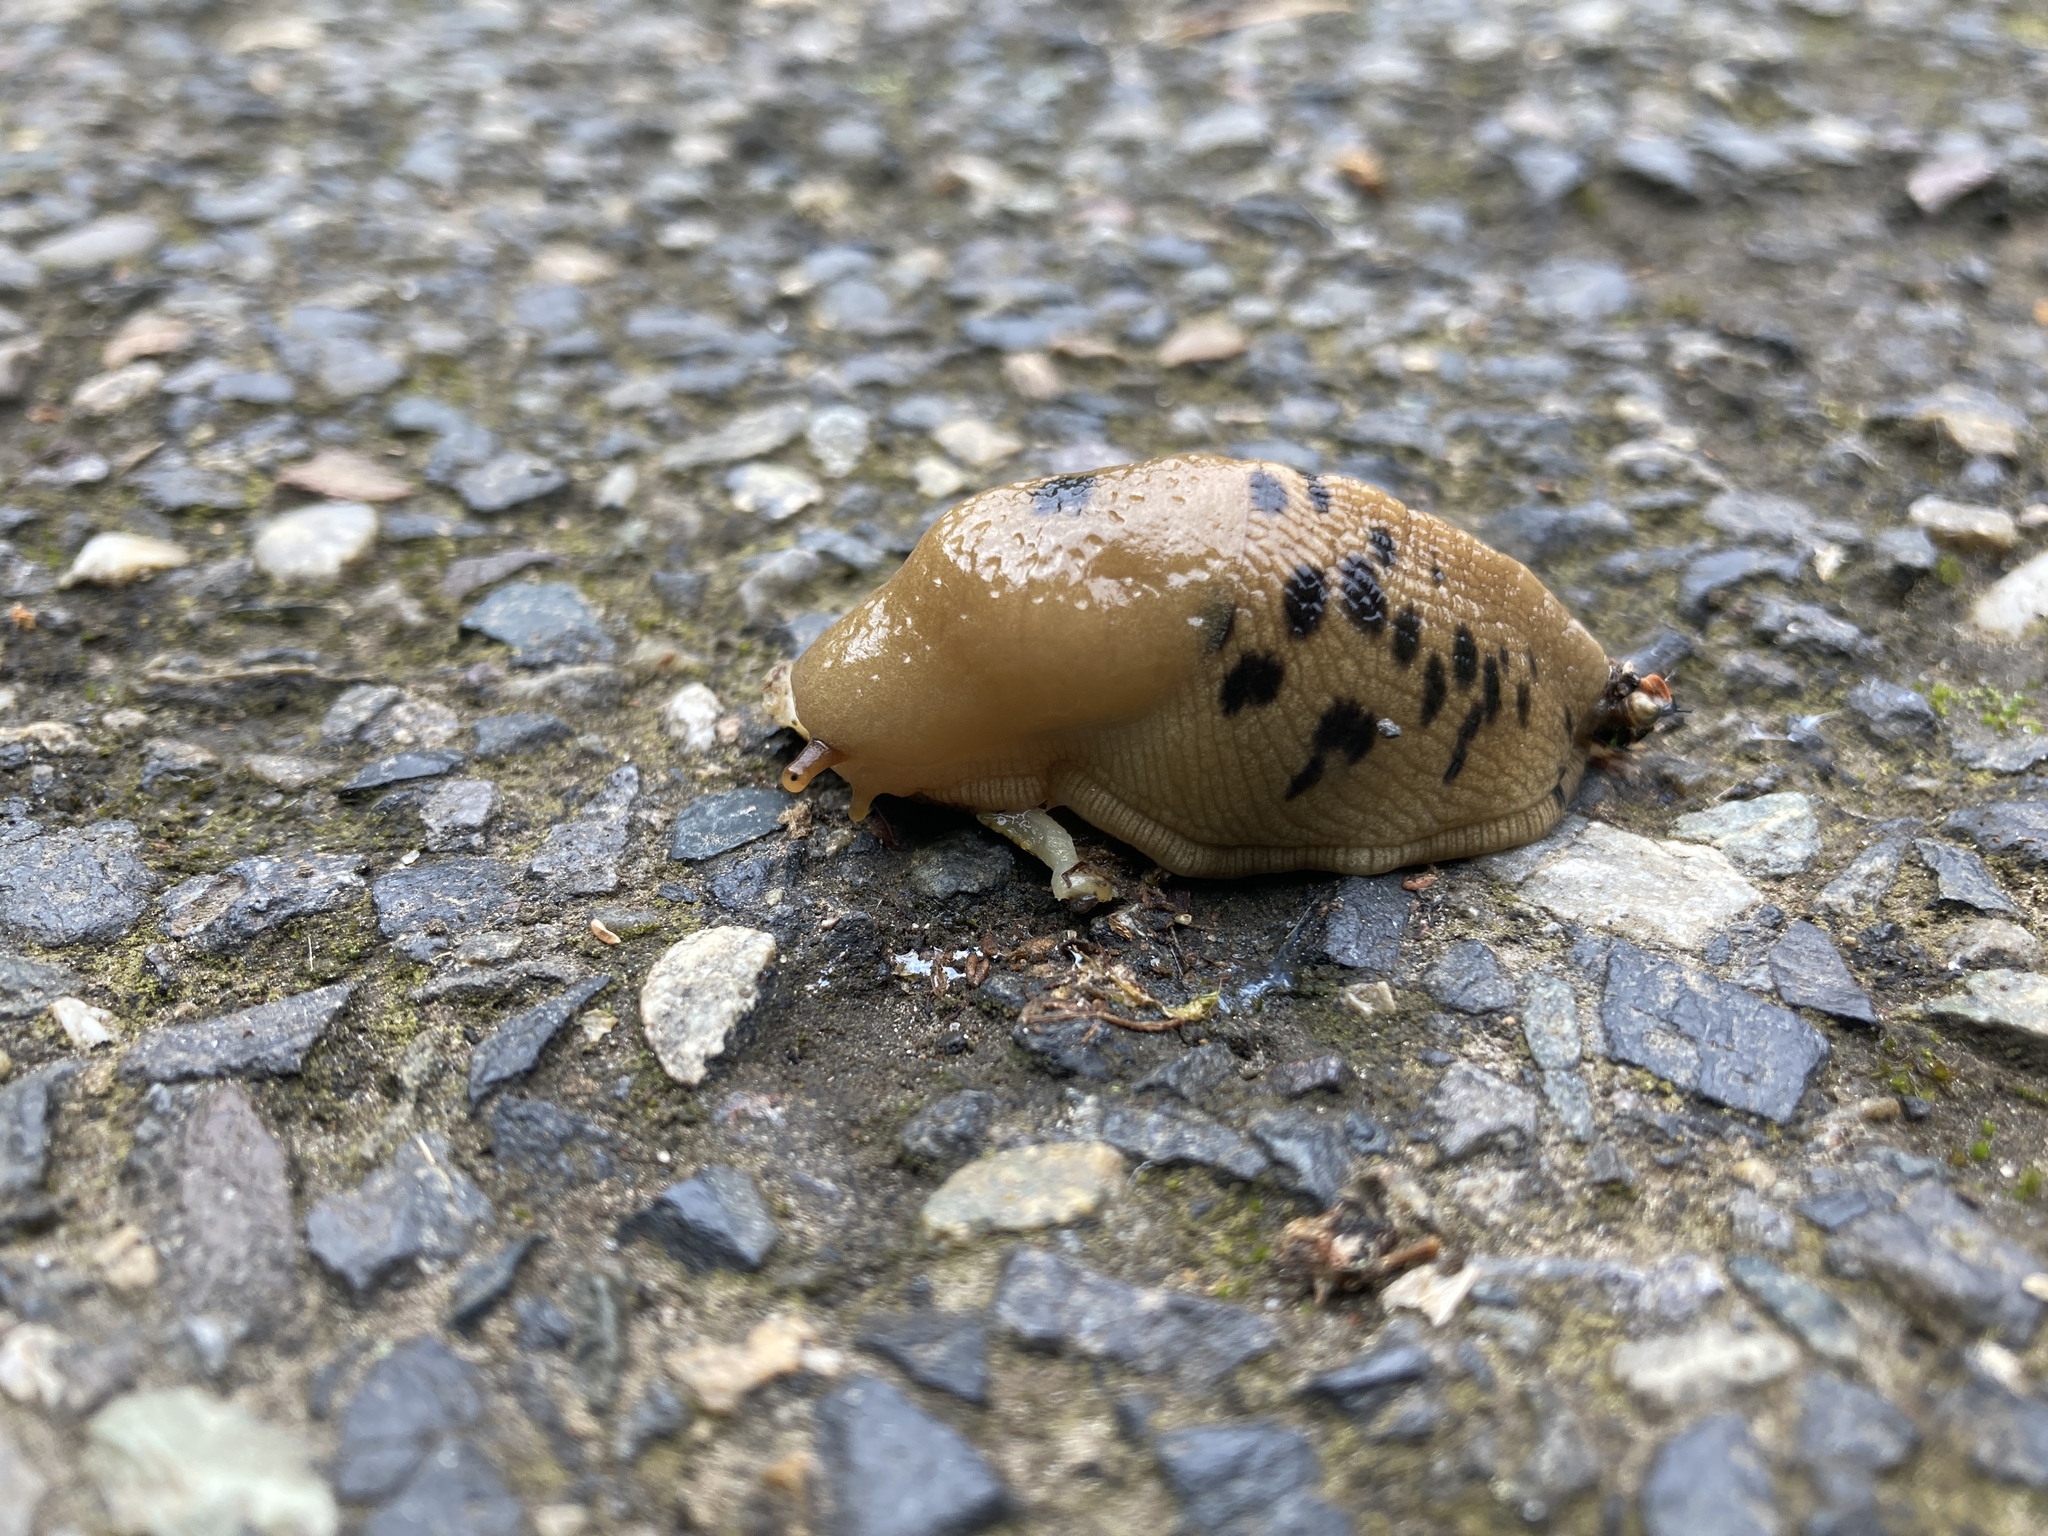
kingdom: Animalia
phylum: Mollusca
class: Gastropoda
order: Stylommatophora
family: Ariolimacidae
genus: Ariolimax
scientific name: Ariolimax columbianus
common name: Pacific banana slug
